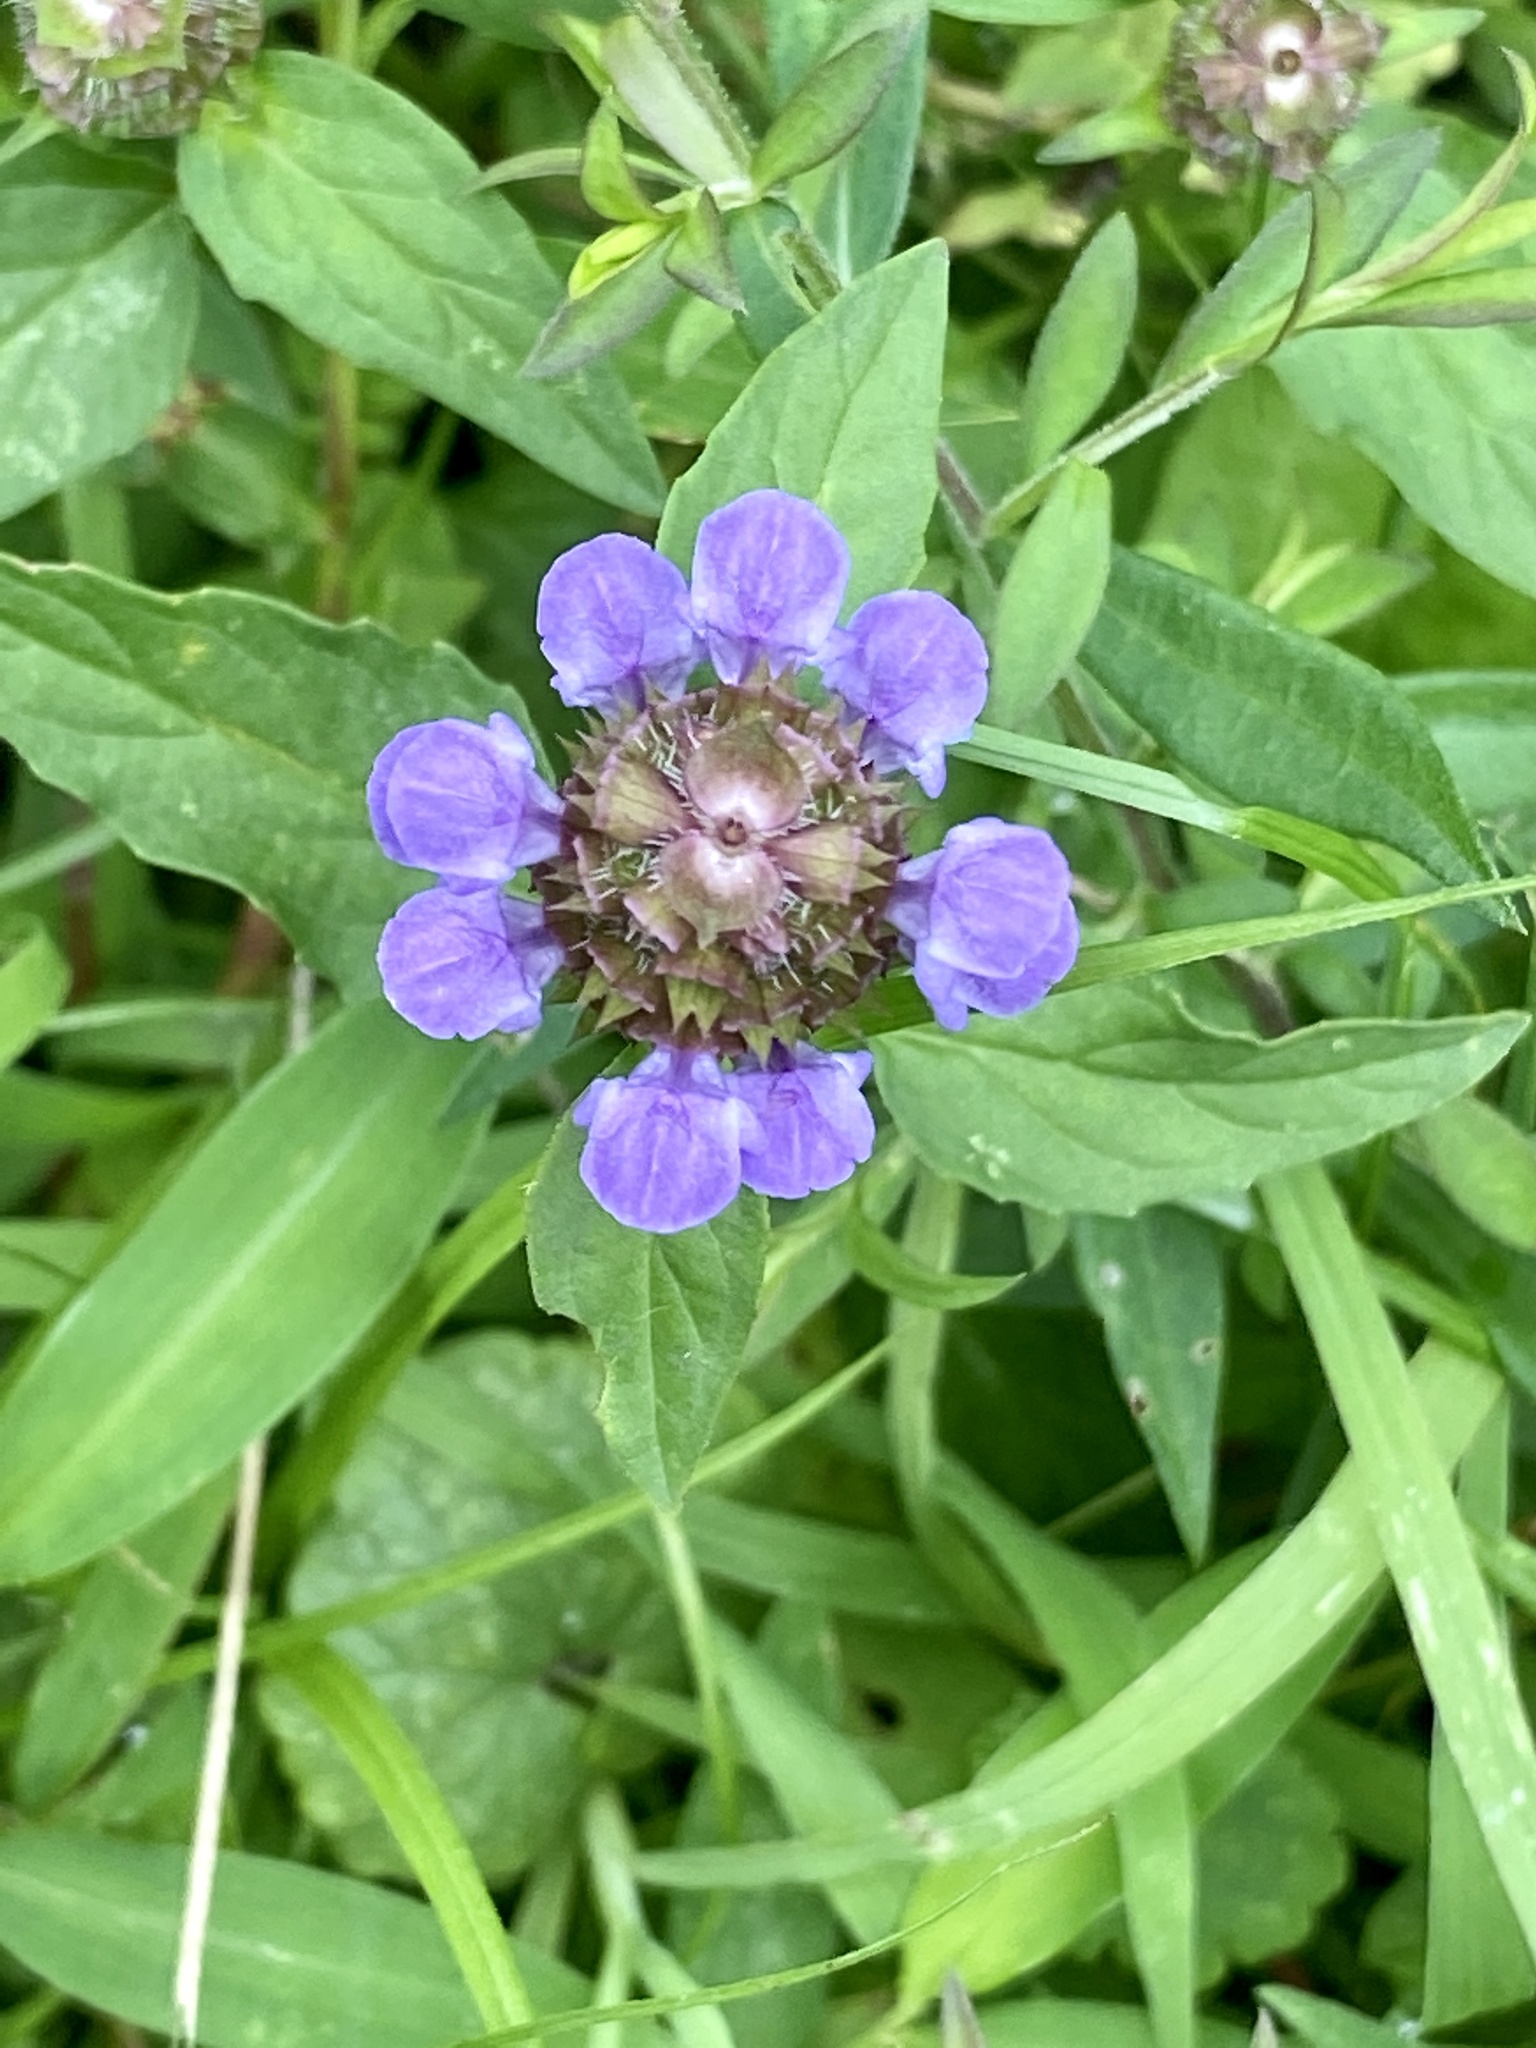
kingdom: Plantae
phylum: Tracheophyta
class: Magnoliopsida
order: Lamiales
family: Lamiaceae
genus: Prunella
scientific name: Prunella vulgaris
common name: Heal-all
